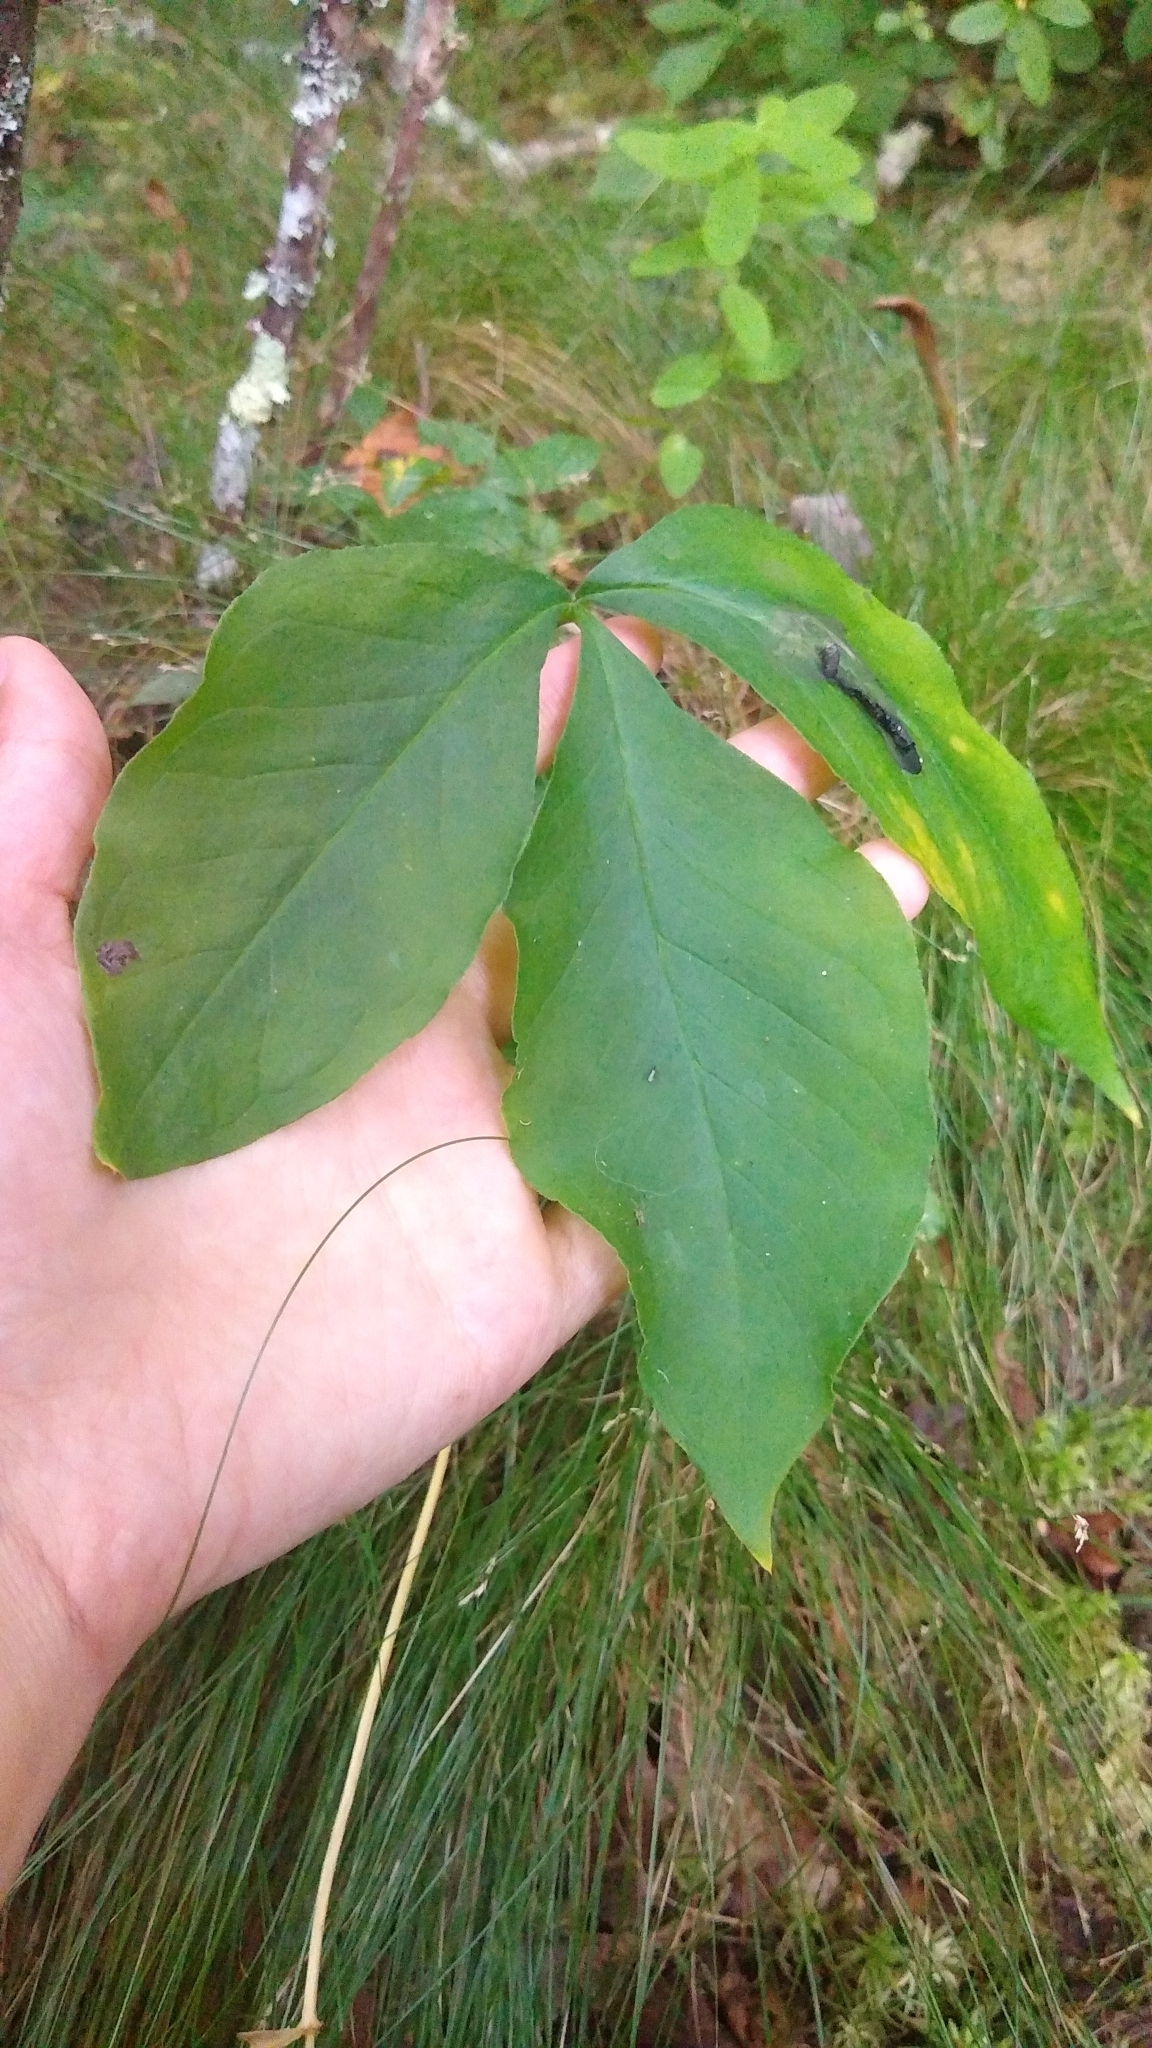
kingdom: Plantae
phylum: Tracheophyta
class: Liliopsida
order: Alismatales
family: Araceae
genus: Arisaema
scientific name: Arisaema triphyllum
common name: Jack-in-the-pulpit
